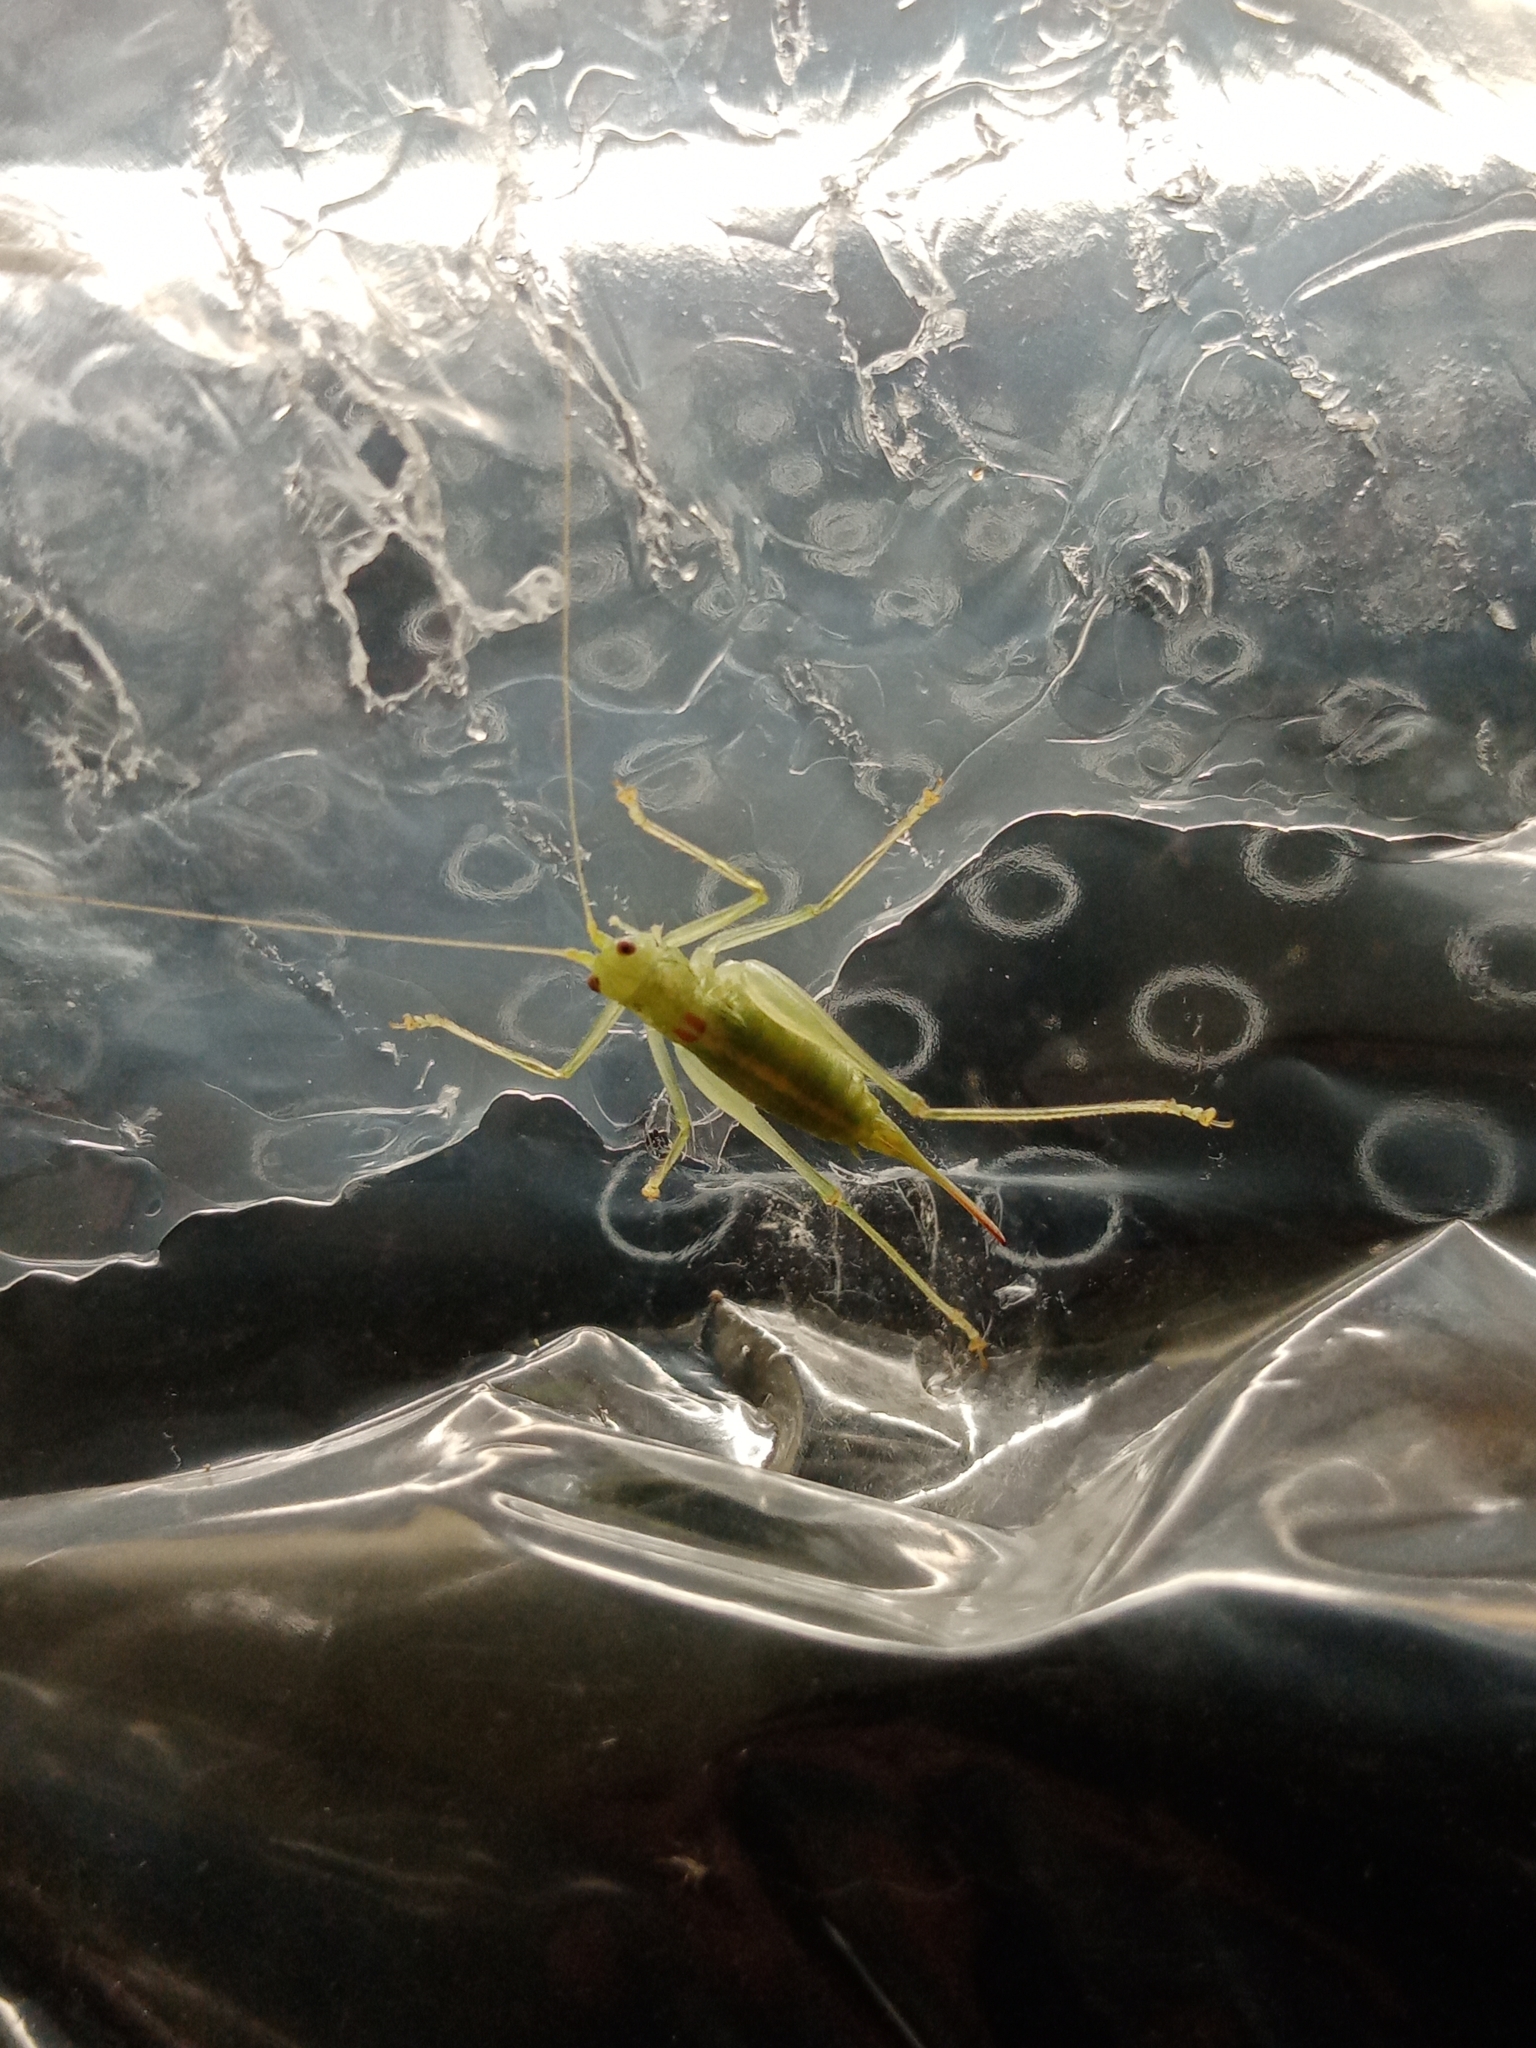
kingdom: Animalia
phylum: Arthropoda
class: Insecta
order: Orthoptera
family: Tettigoniidae
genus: Meconema
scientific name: Meconema meridionale
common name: Southern oak bush-cricket
